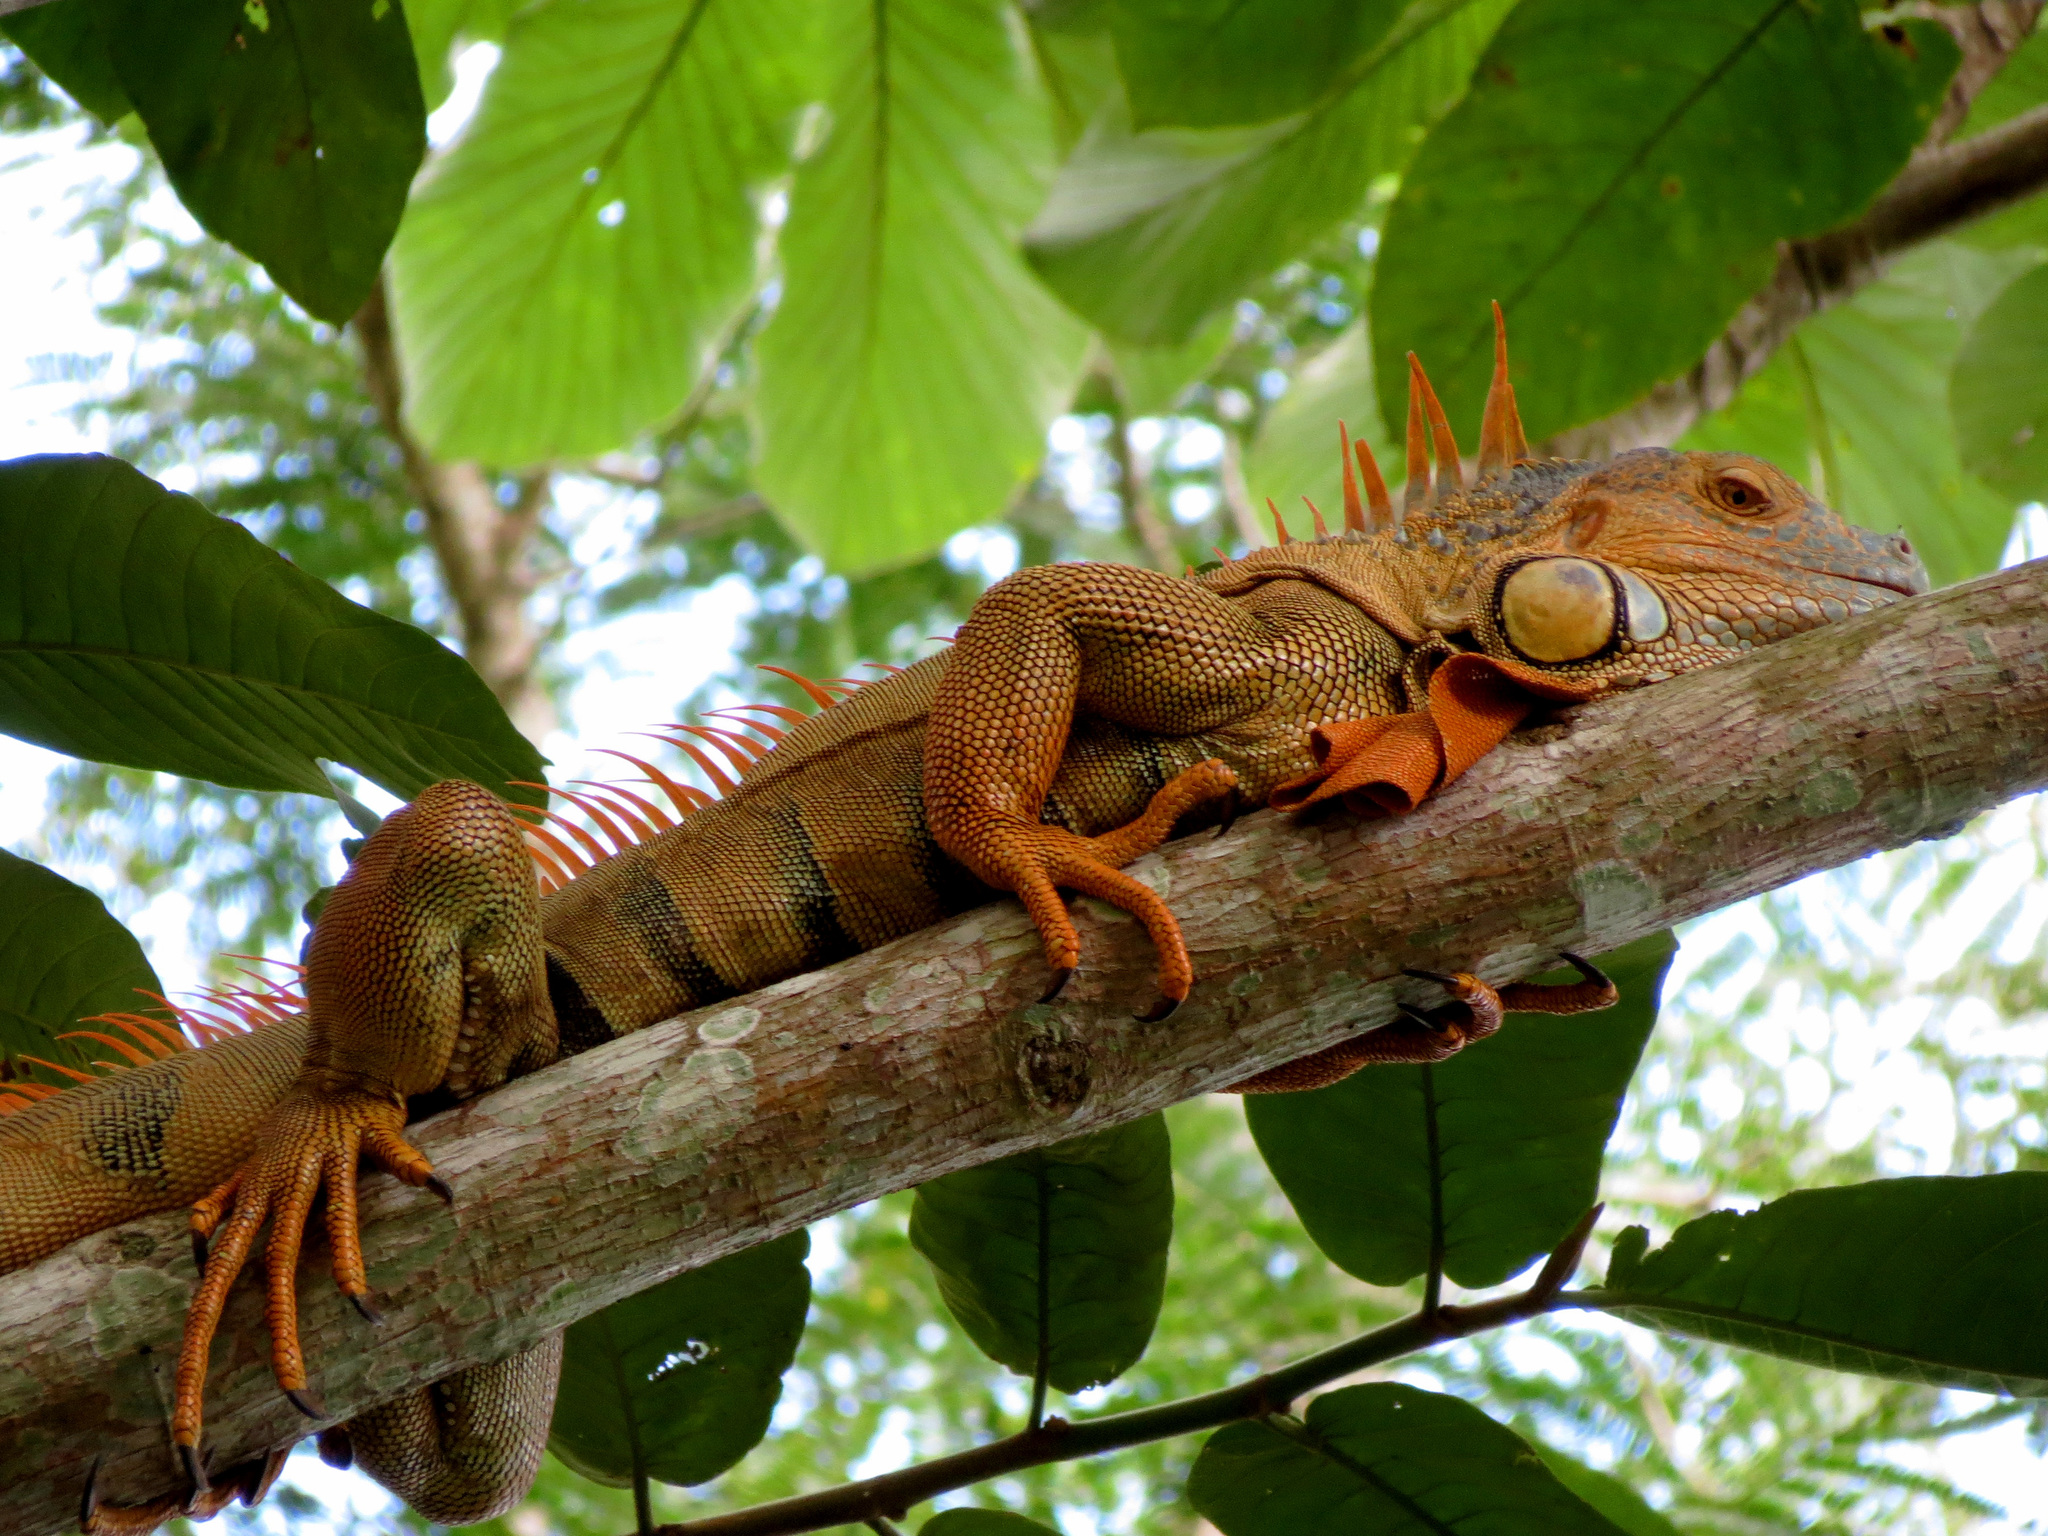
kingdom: Animalia
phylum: Chordata
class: Squamata
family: Iguanidae
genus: Iguana
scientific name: Iguana iguana
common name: Green iguana
